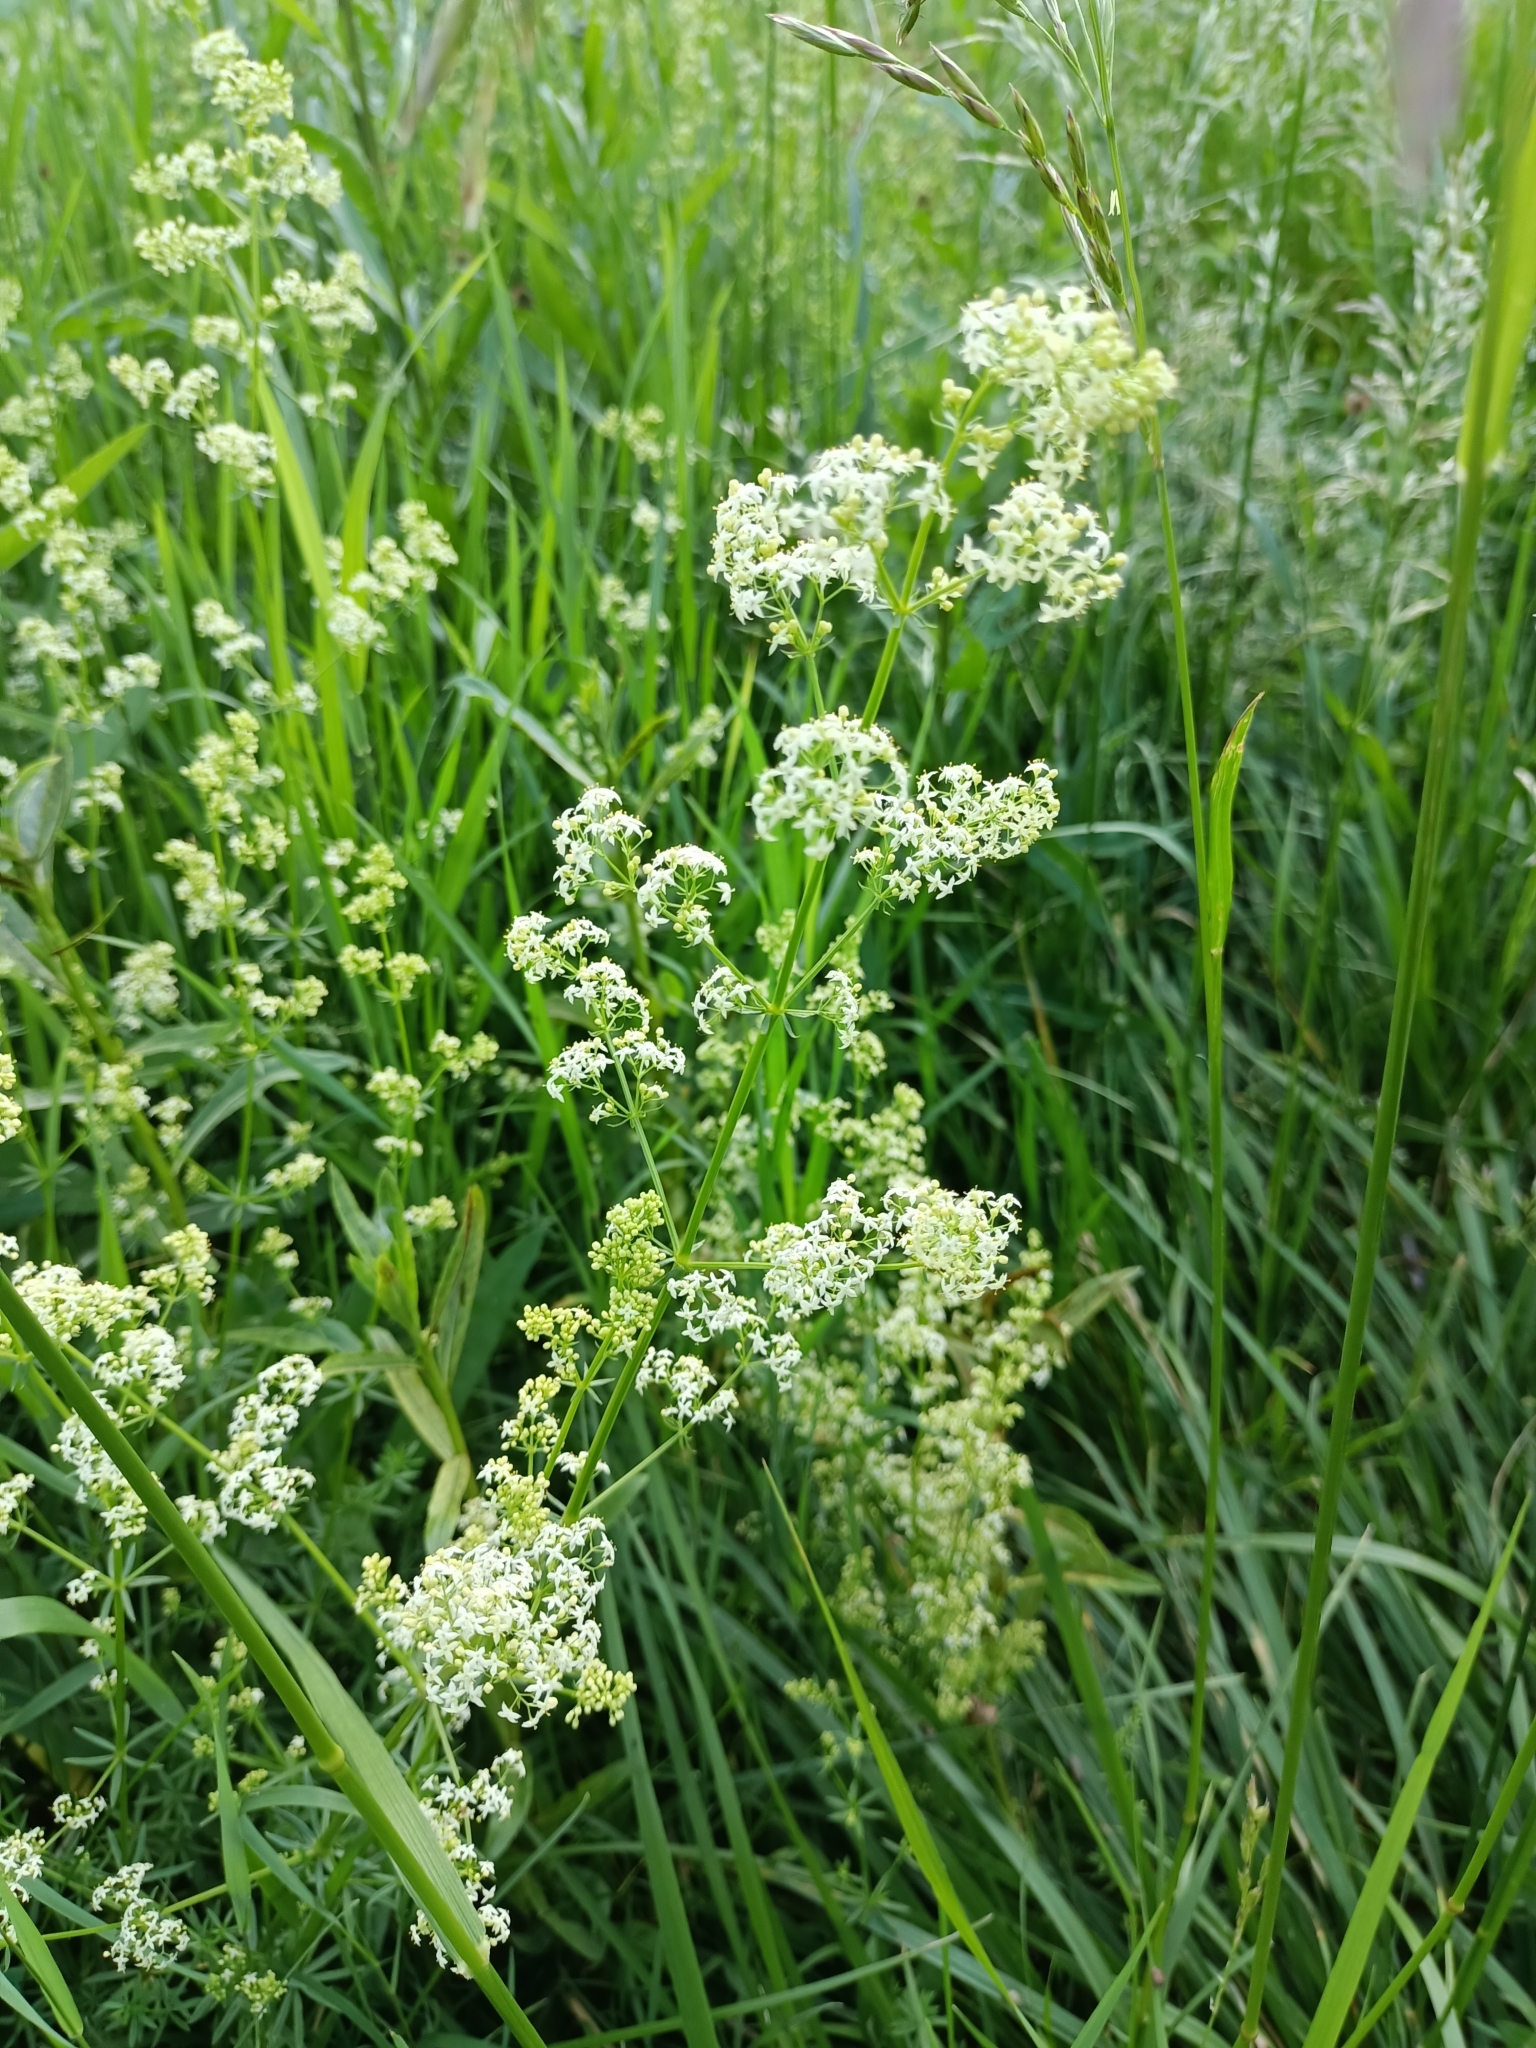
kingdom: Plantae
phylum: Tracheophyta
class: Magnoliopsida
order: Gentianales
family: Rubiaceae
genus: Galium
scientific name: Galium mollugo
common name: Hedge bedstraw
